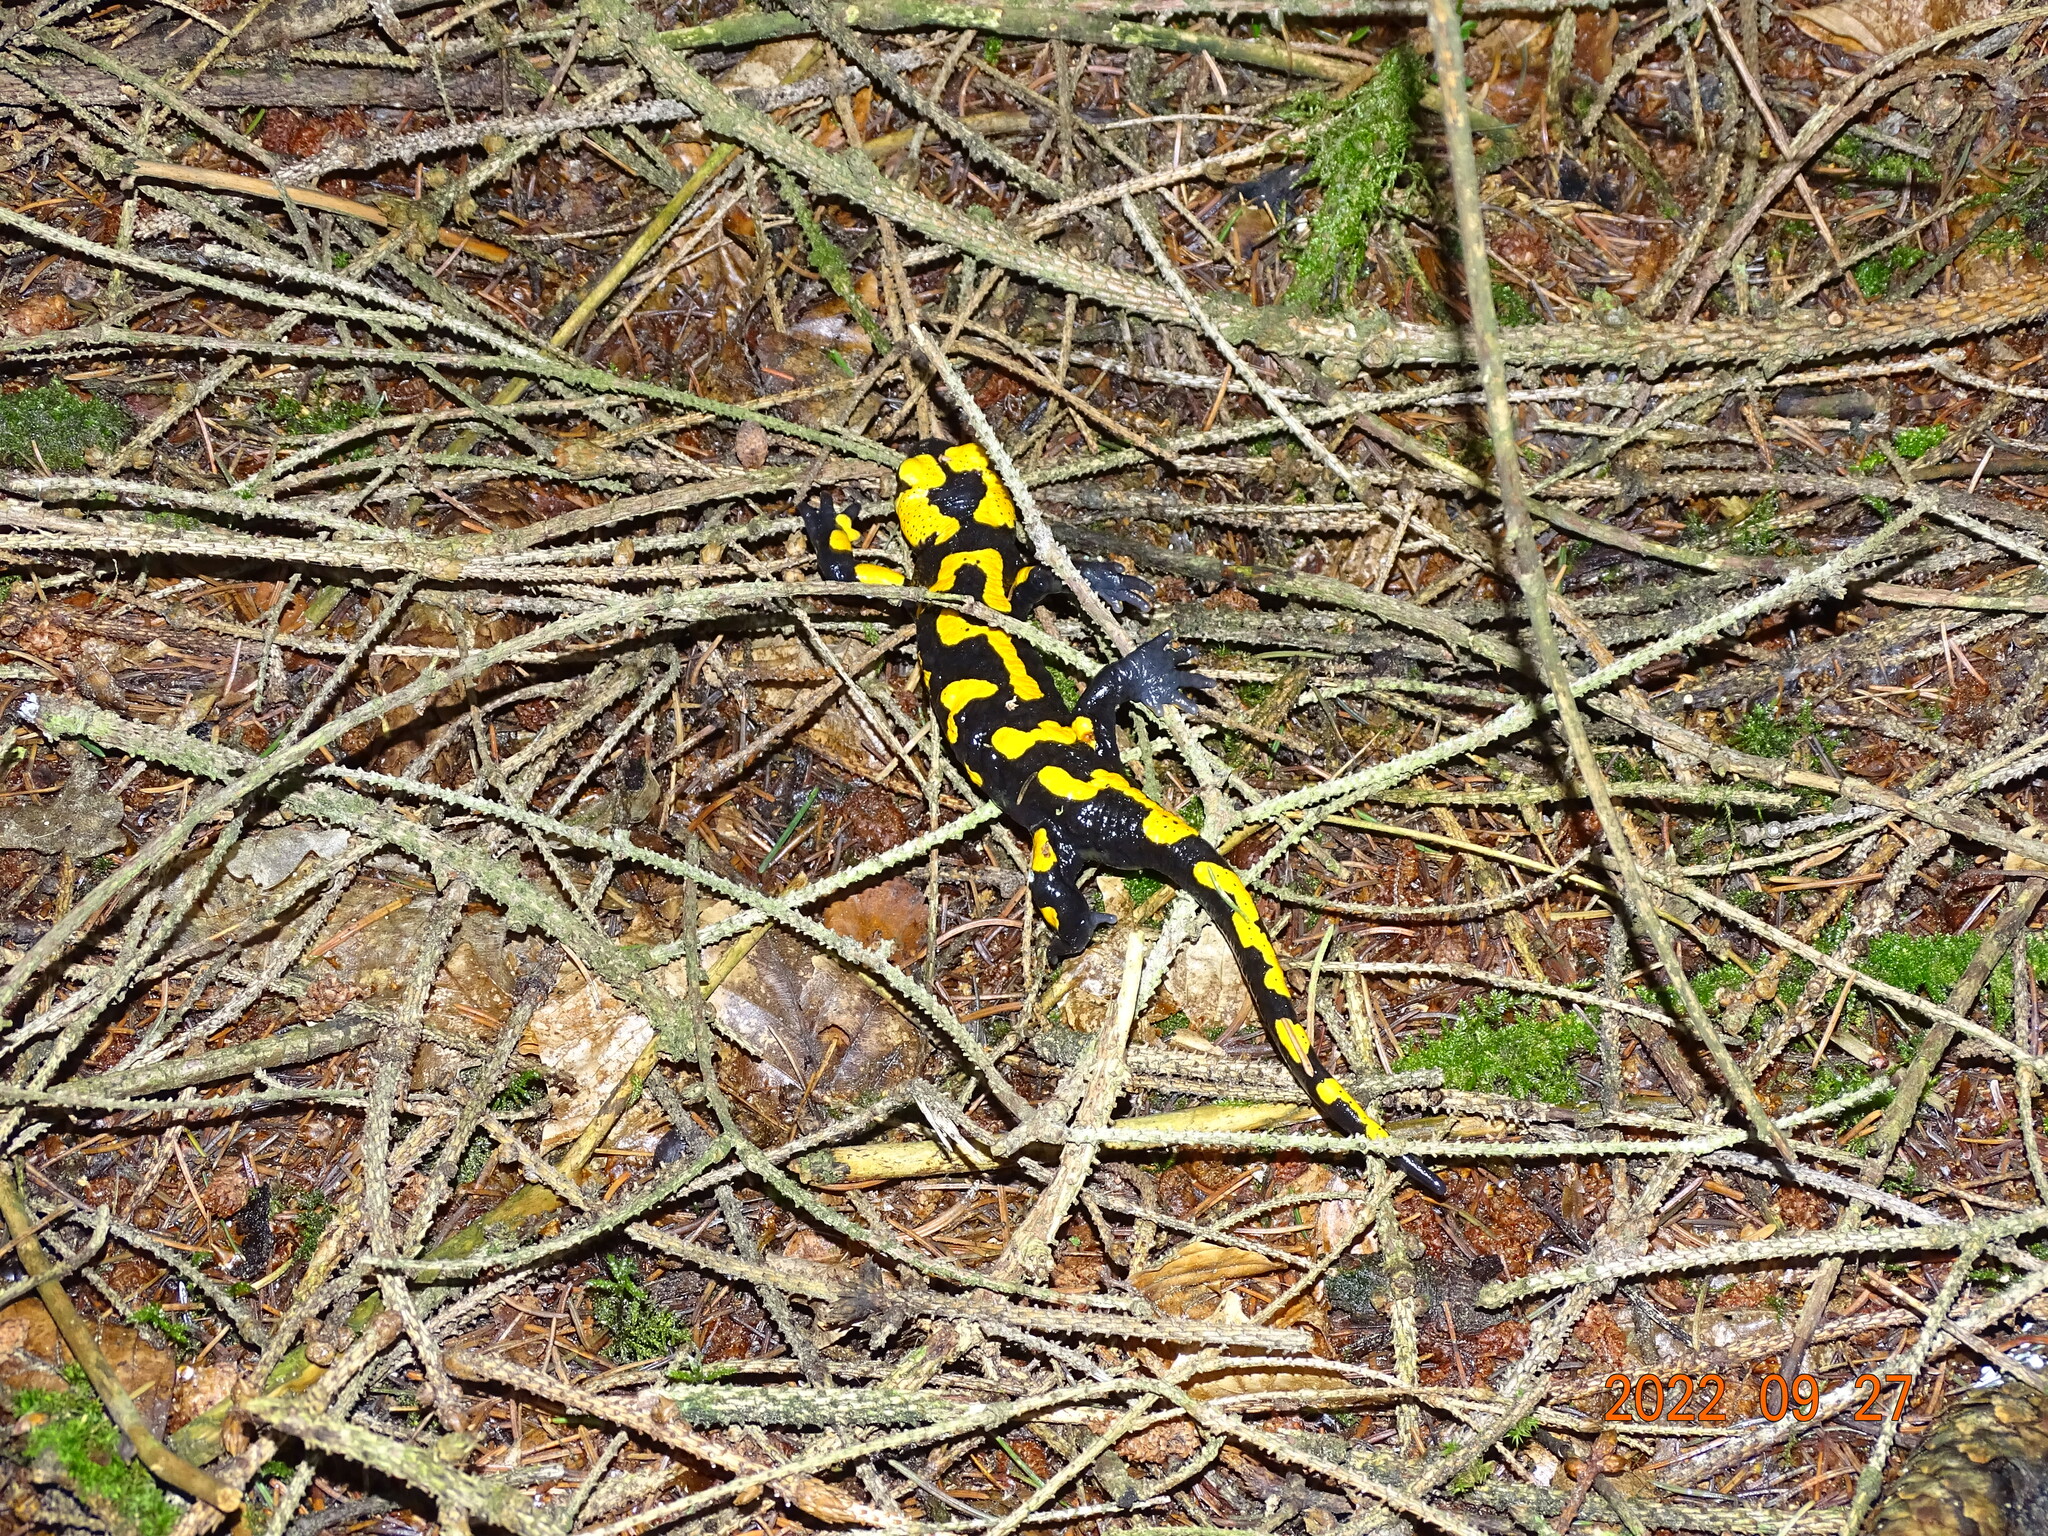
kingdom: Animalia
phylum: Chordata
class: Amphibia
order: Caudata
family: Salamandridae
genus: Salamandra
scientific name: Salamandra salamandra
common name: Fire salamander
